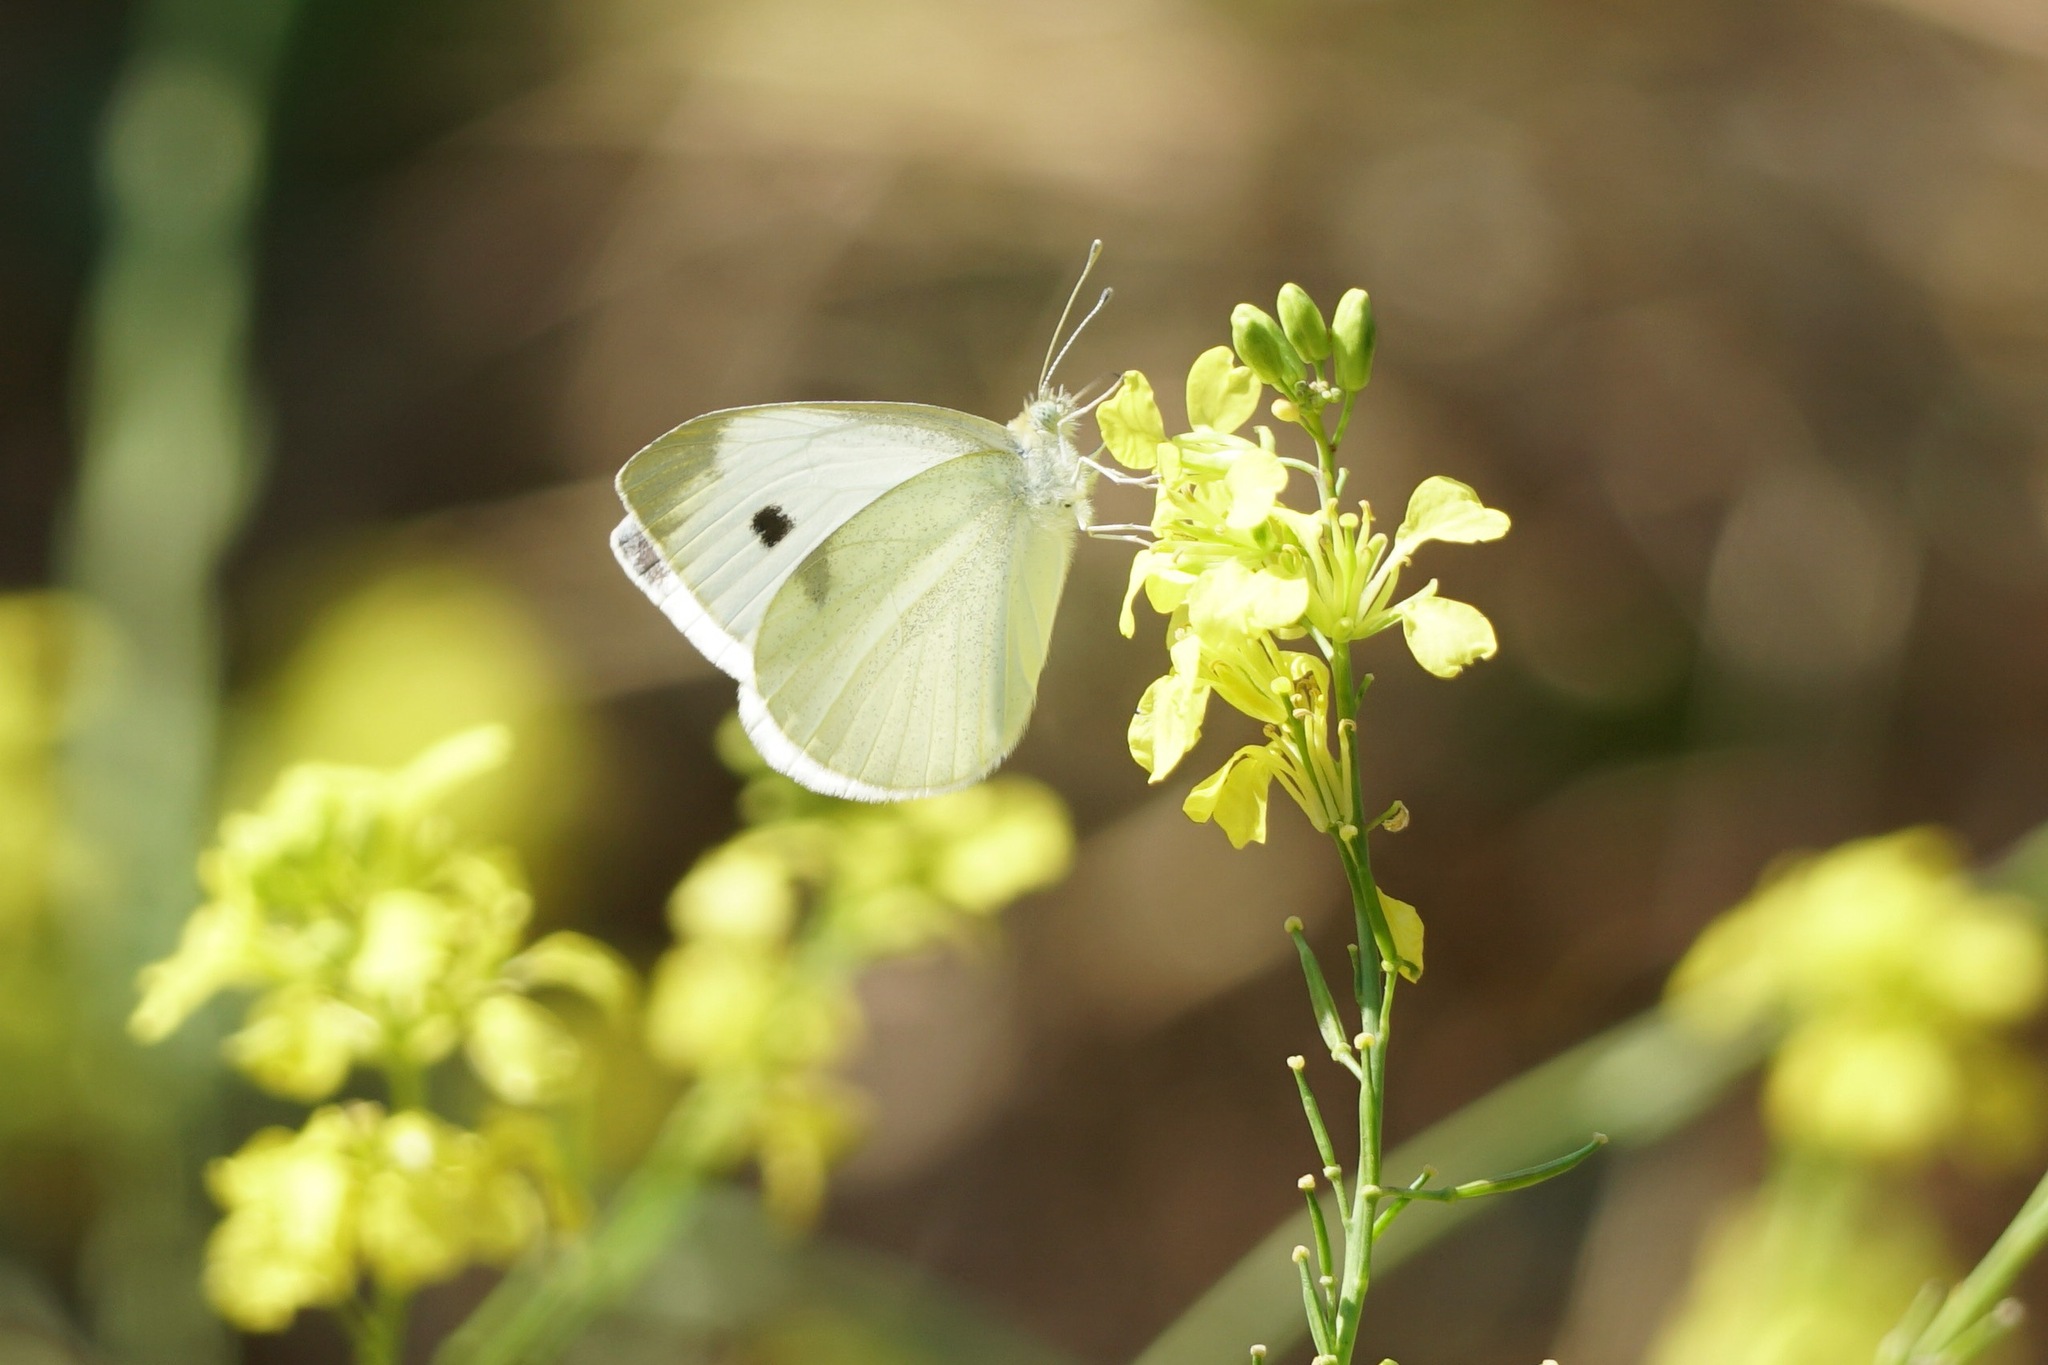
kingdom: Animalia
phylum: Arthropoda
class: Insecta
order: Lepidoptera
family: Pieridae
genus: Pieris
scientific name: Pieris rapae
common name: Small white
